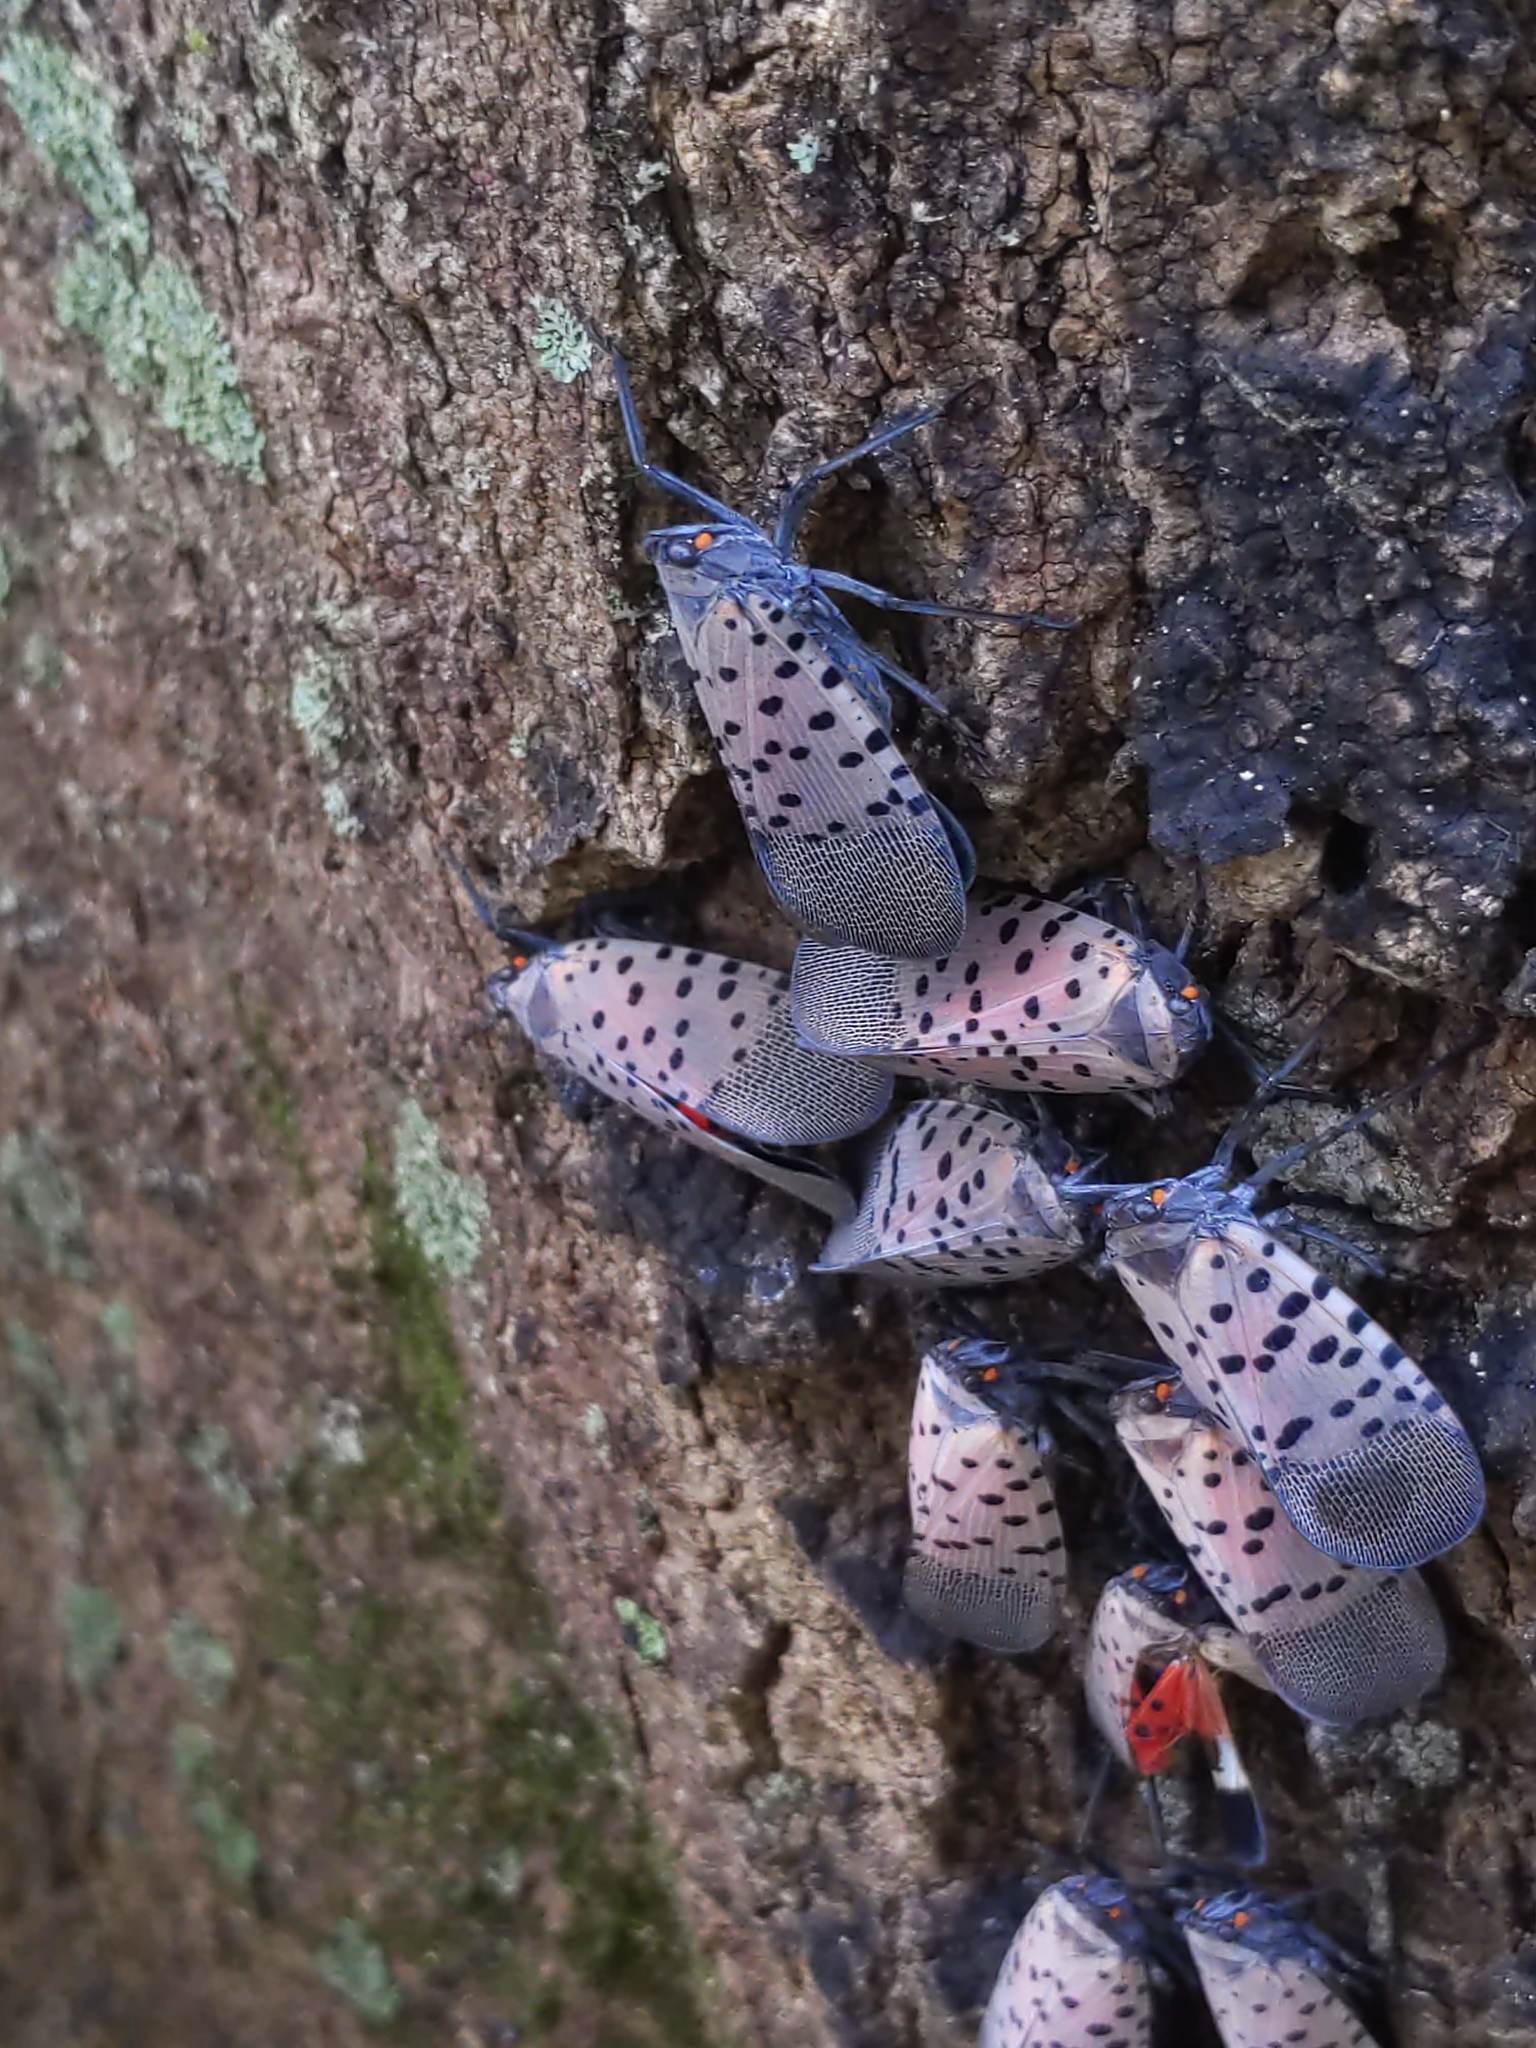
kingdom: Animalia
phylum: Arthropoda
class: Insecta
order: Hemiptera
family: Fulgoridae
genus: Lycorma
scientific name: Lycorma delicatula
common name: Spotted lanternfly
